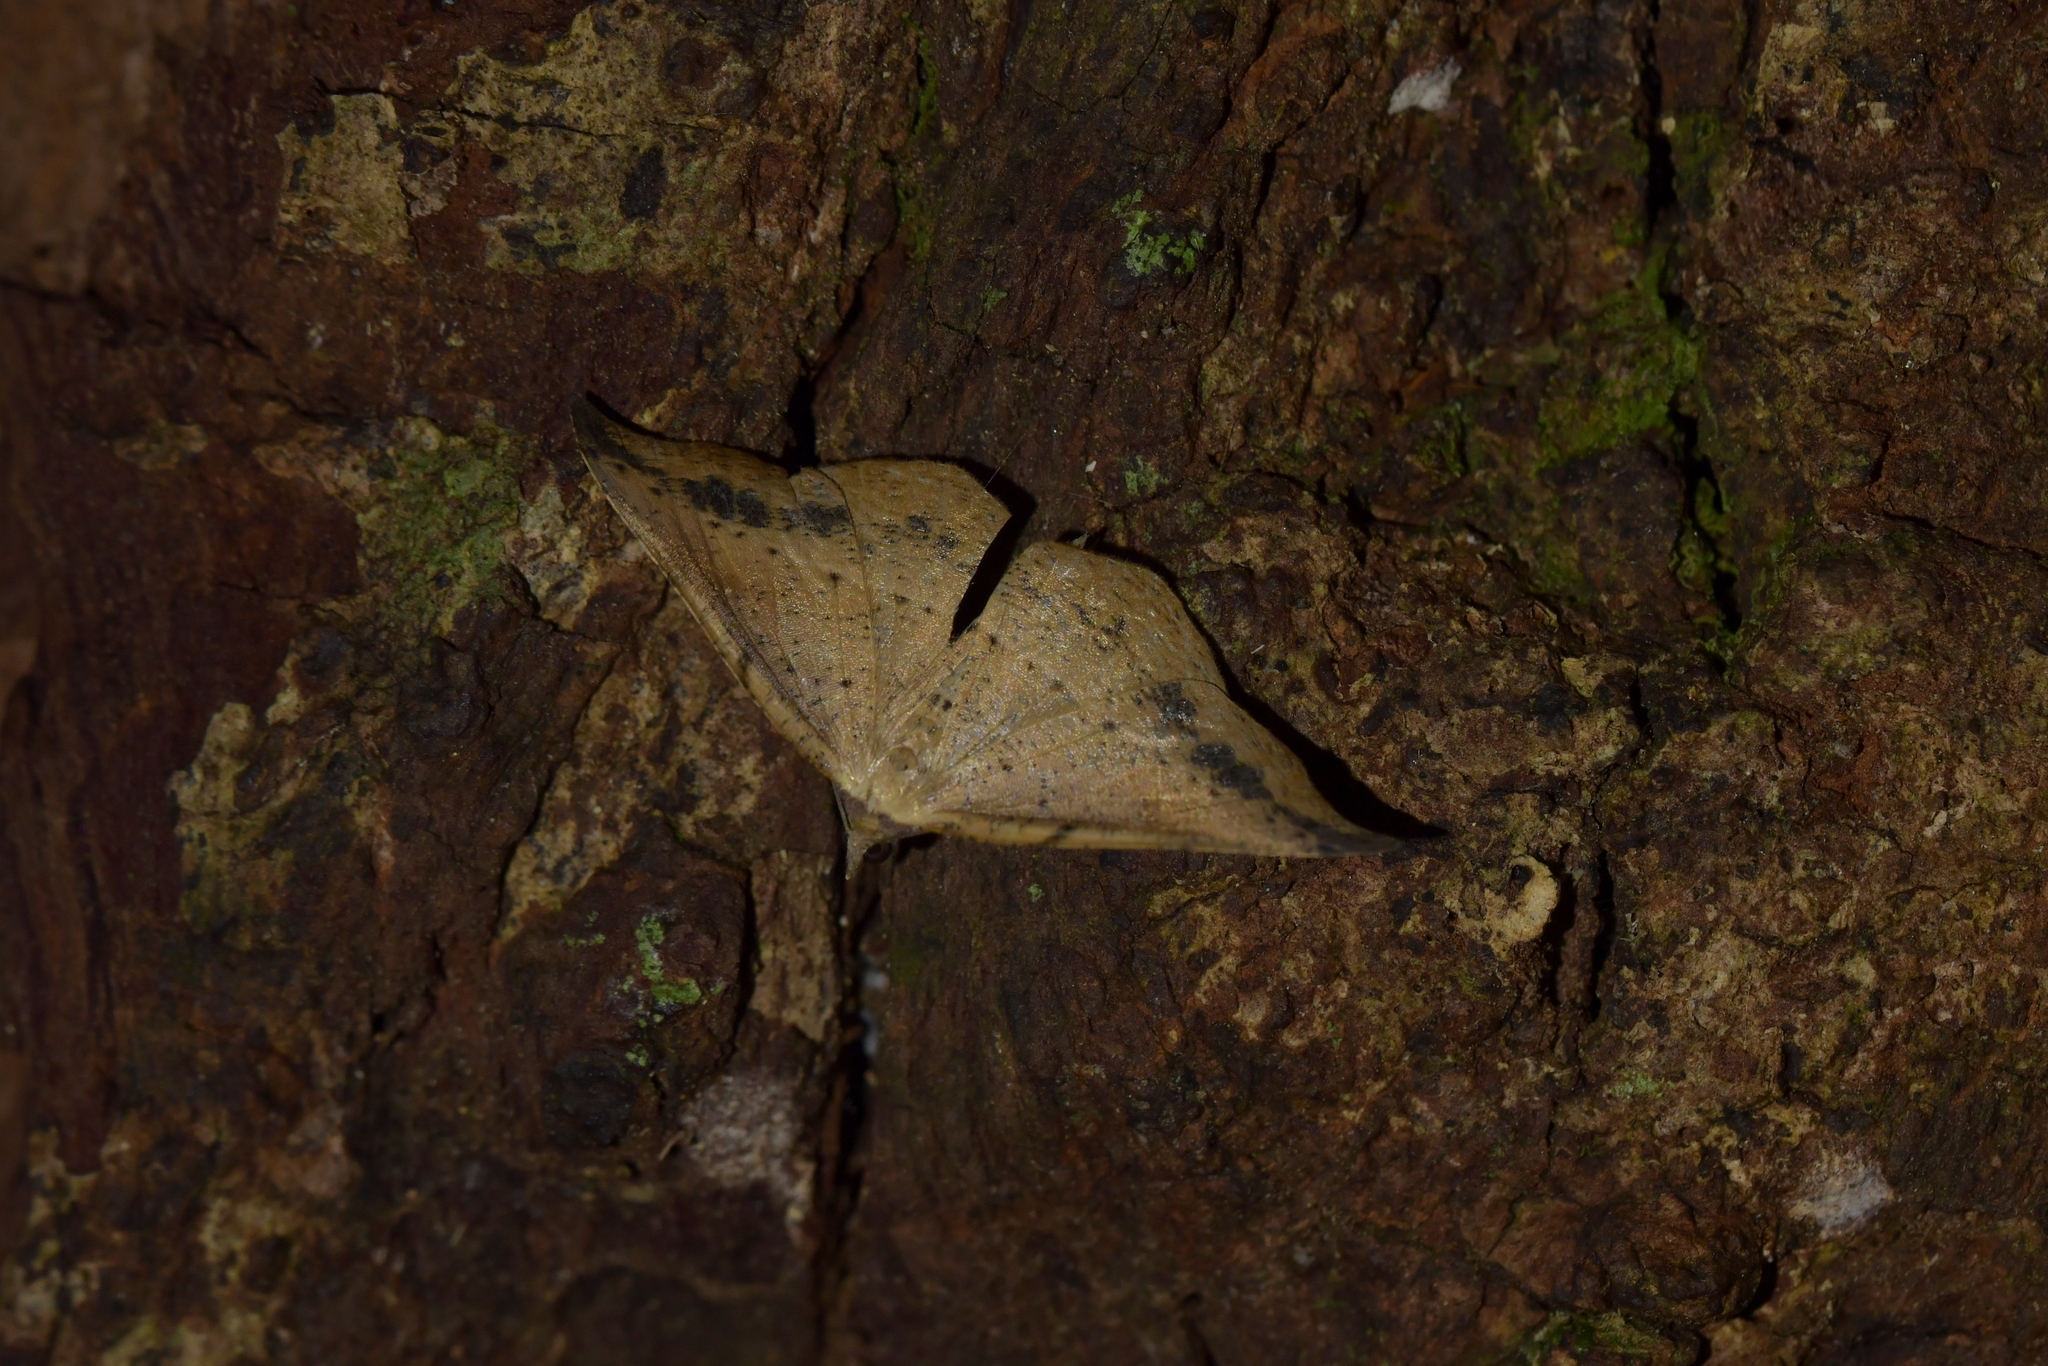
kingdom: Animalia
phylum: Arthropoda
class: Insecta
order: Lepidoptera
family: Geometridae
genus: Sarisa
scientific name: Sarisa muriferata
